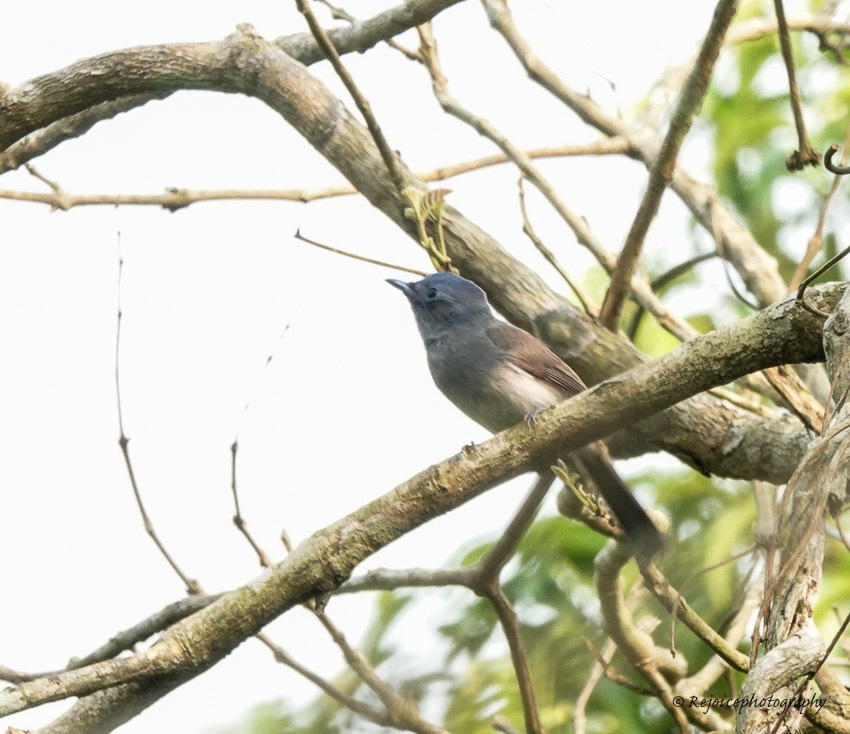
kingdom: Animalia
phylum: Chordata
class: Aves
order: Passeriformes
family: Monarchidae
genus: Hypothymis
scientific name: Hypothymis azurea
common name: Black-naped monarch
